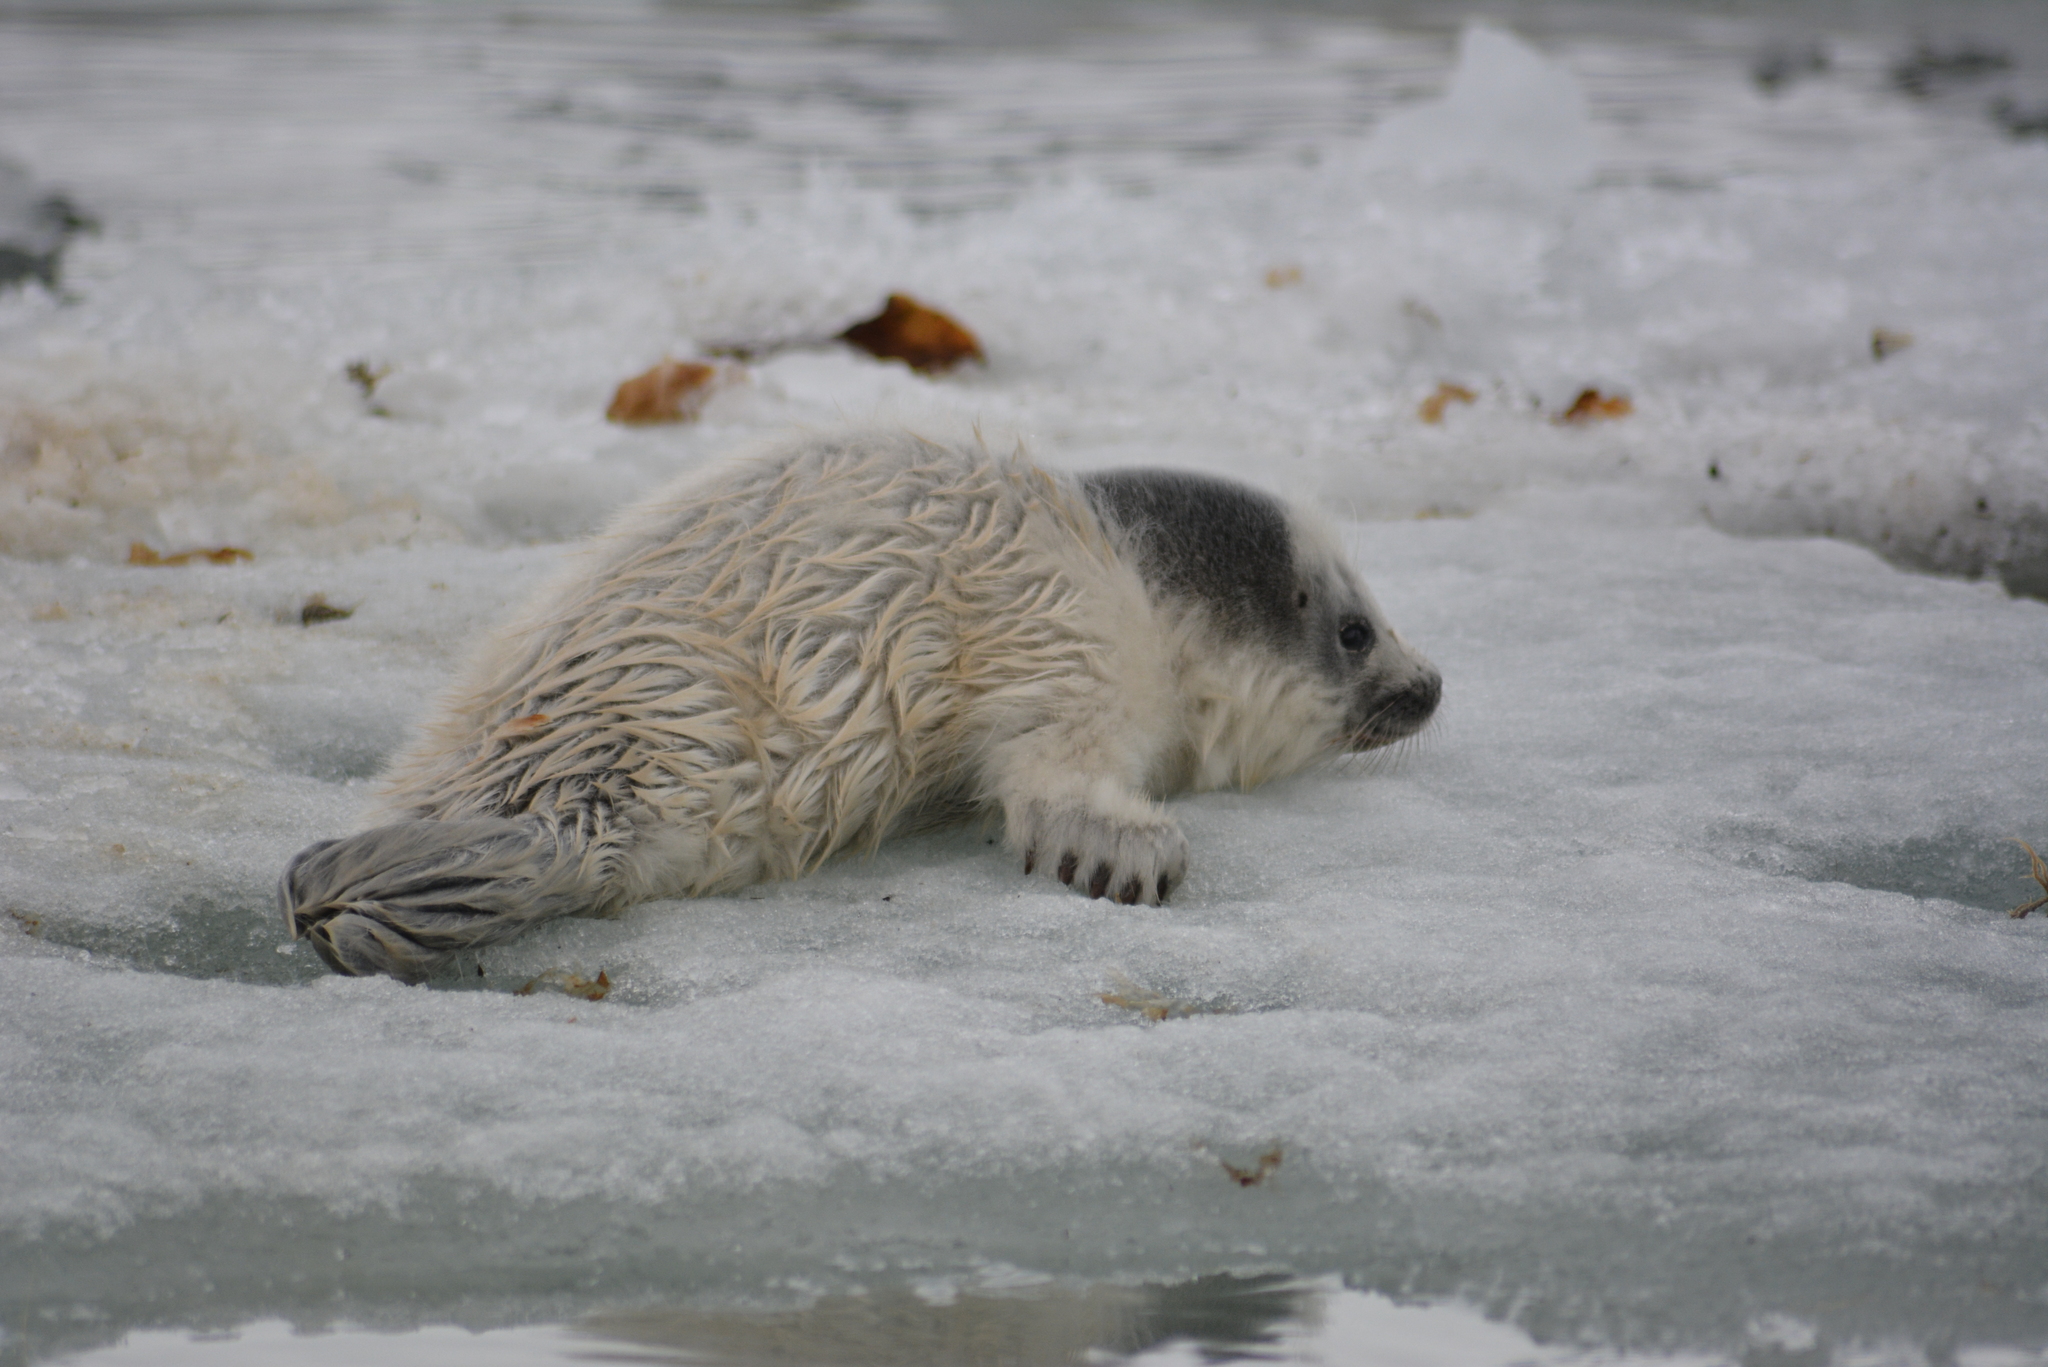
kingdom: Animalia
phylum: Chordata
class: Mammalia
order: Carnivora
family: Phocidae
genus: Pusa
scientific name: Pusa hispida
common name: Ringed seal
